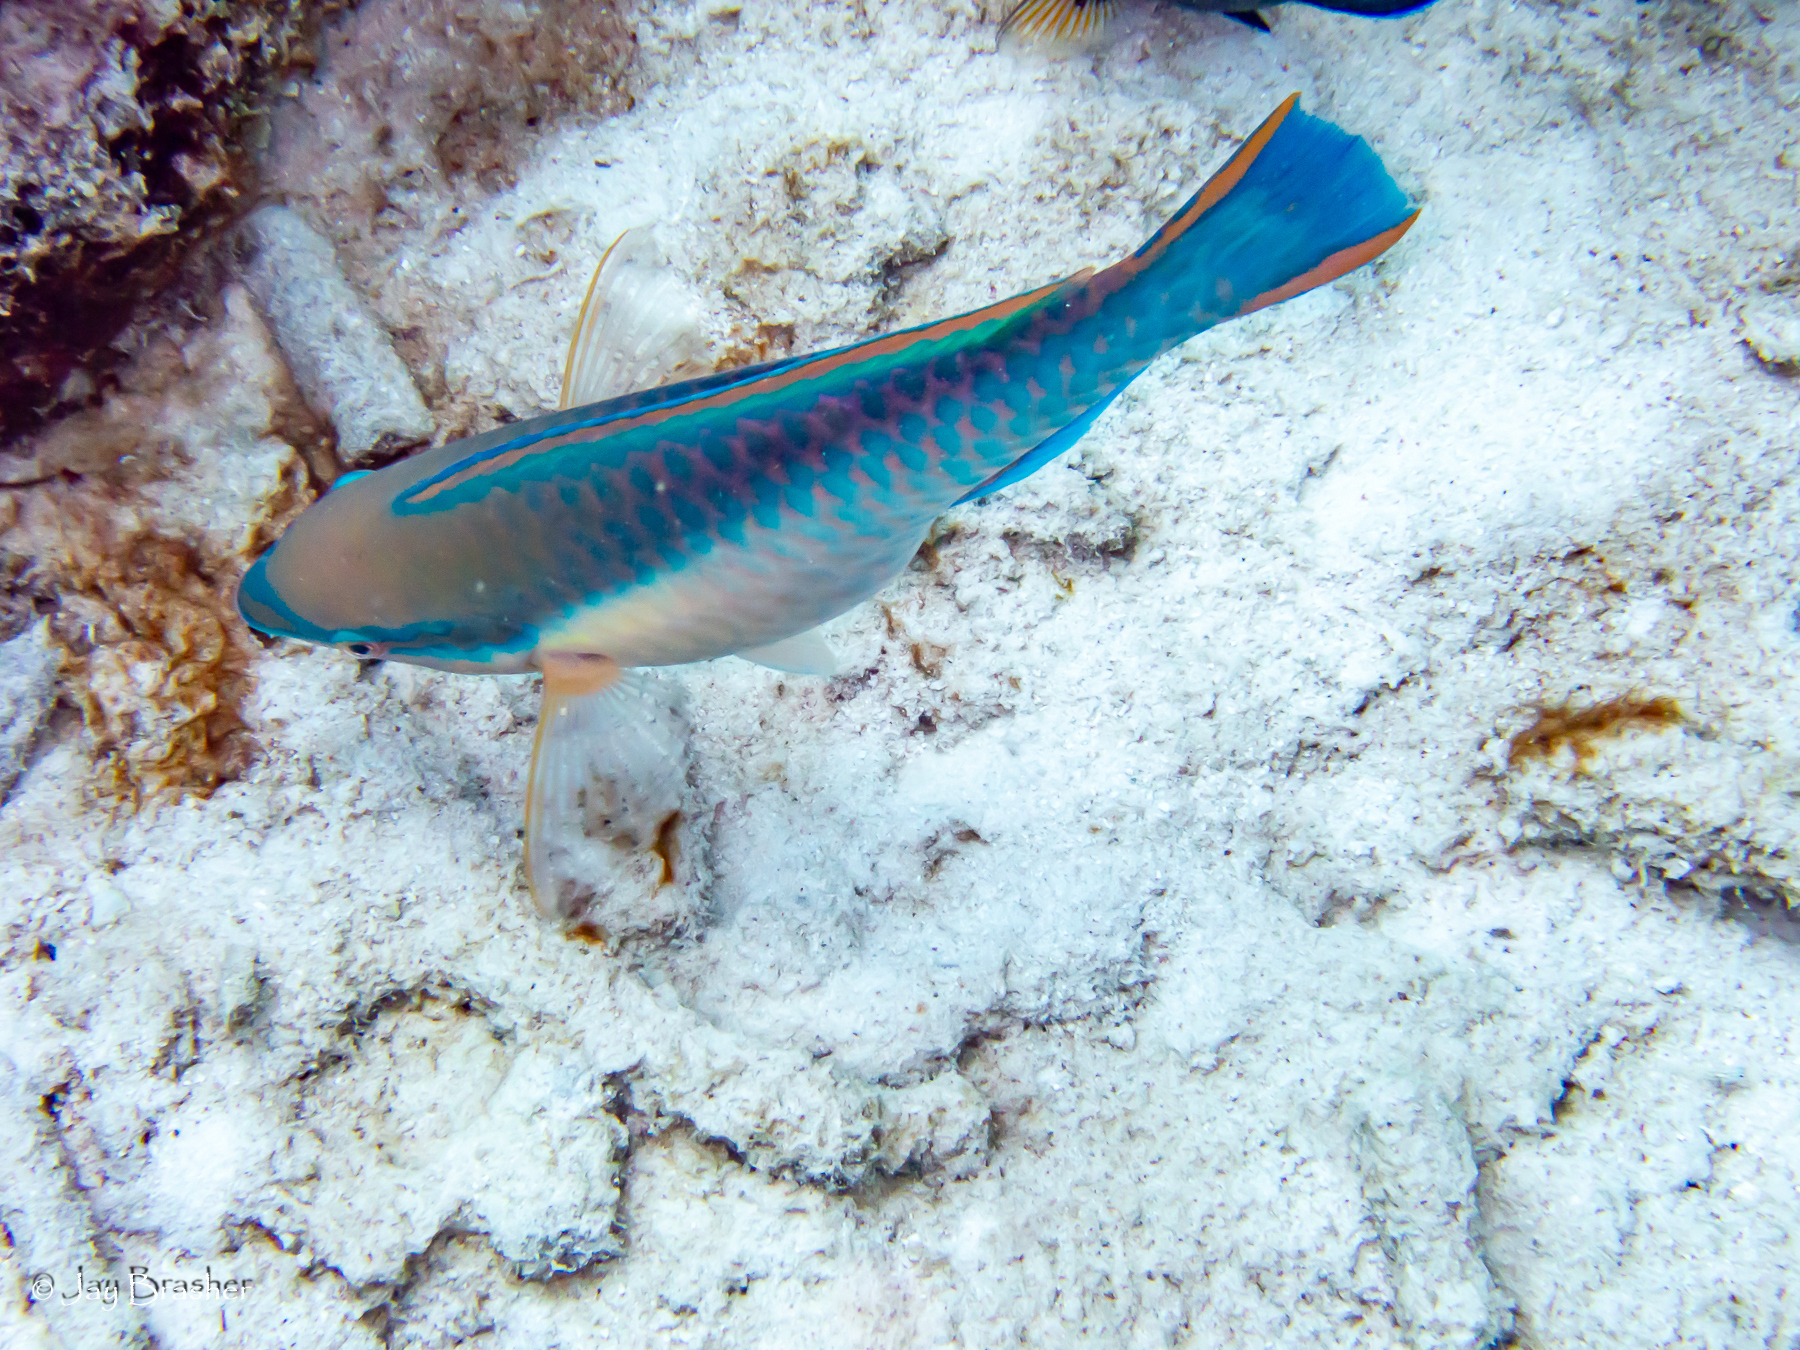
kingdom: Animalia
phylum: Chordata
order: Perciformes
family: Scaridae
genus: Scarus
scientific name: Scarus taeniopterus
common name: Princess parrotfish
